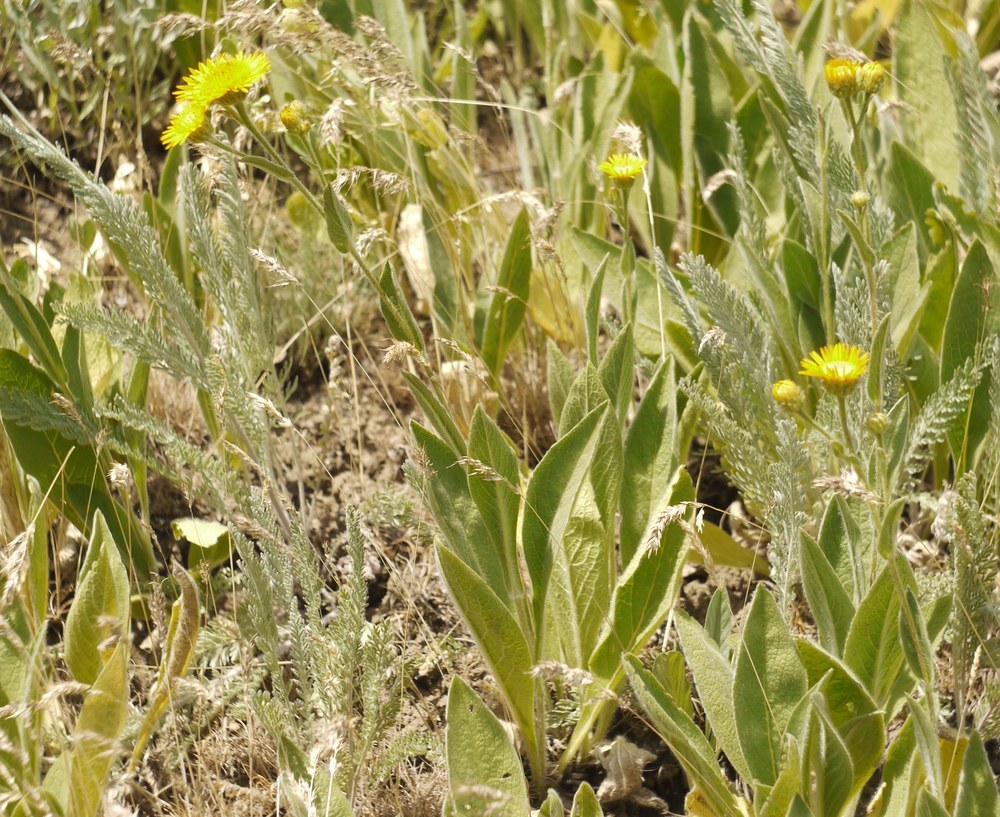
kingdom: Plantae
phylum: Tracheophyta
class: Magnoliopsida
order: Asterales
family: Asteraceae
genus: Pentanema
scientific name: Pentanema oculus-christi
